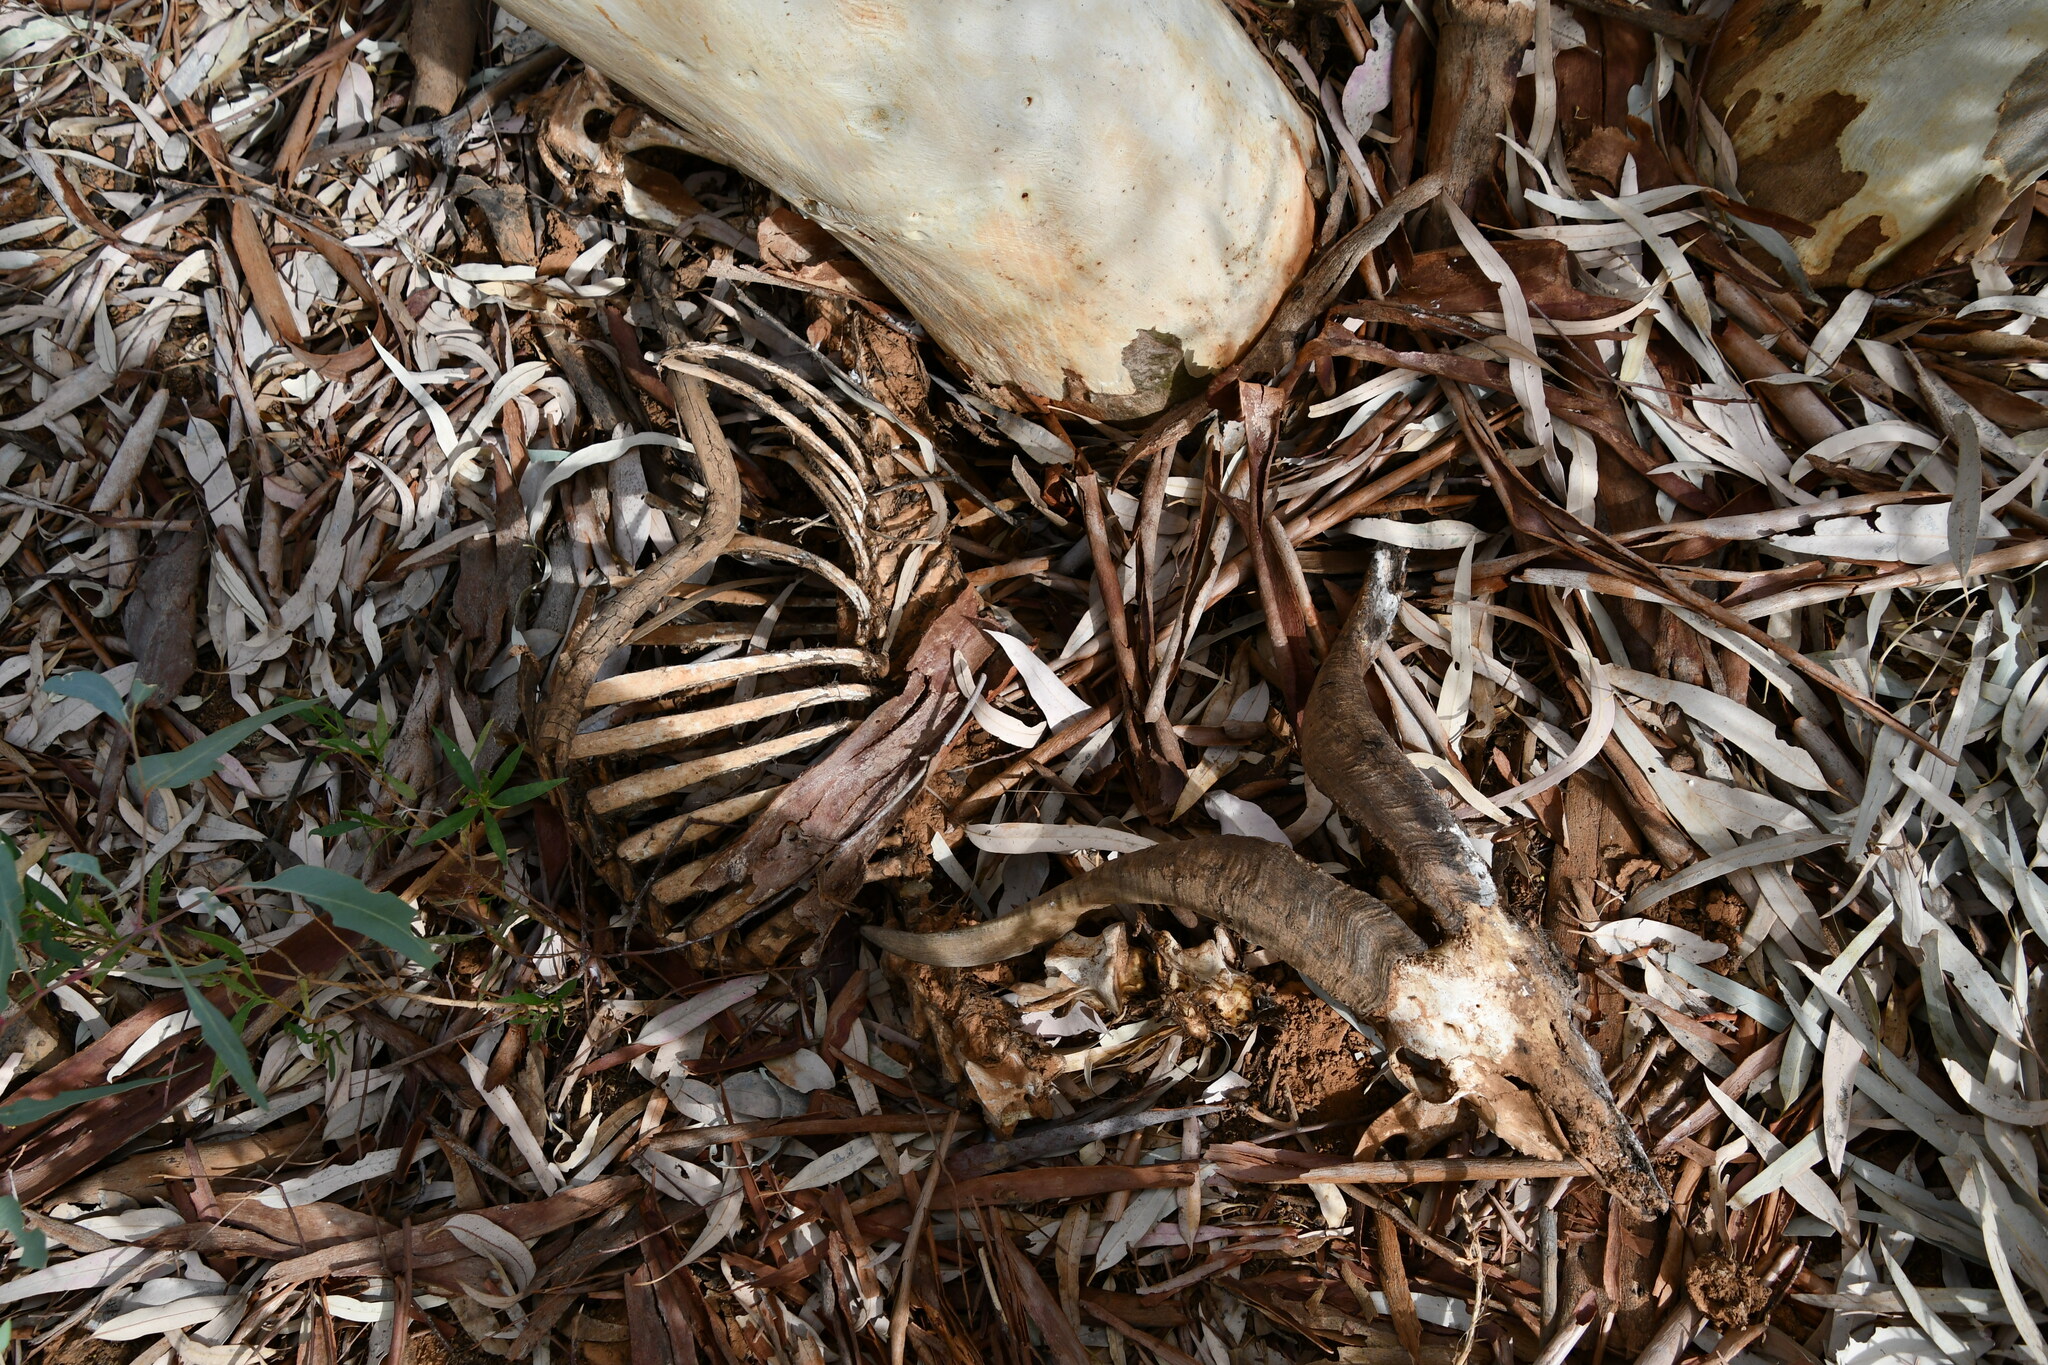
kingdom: Animalia
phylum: Chordata
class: Mammalia
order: Artiodactyla
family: Bovidae
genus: Capra
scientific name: Capra hircus
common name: Domestic goat
